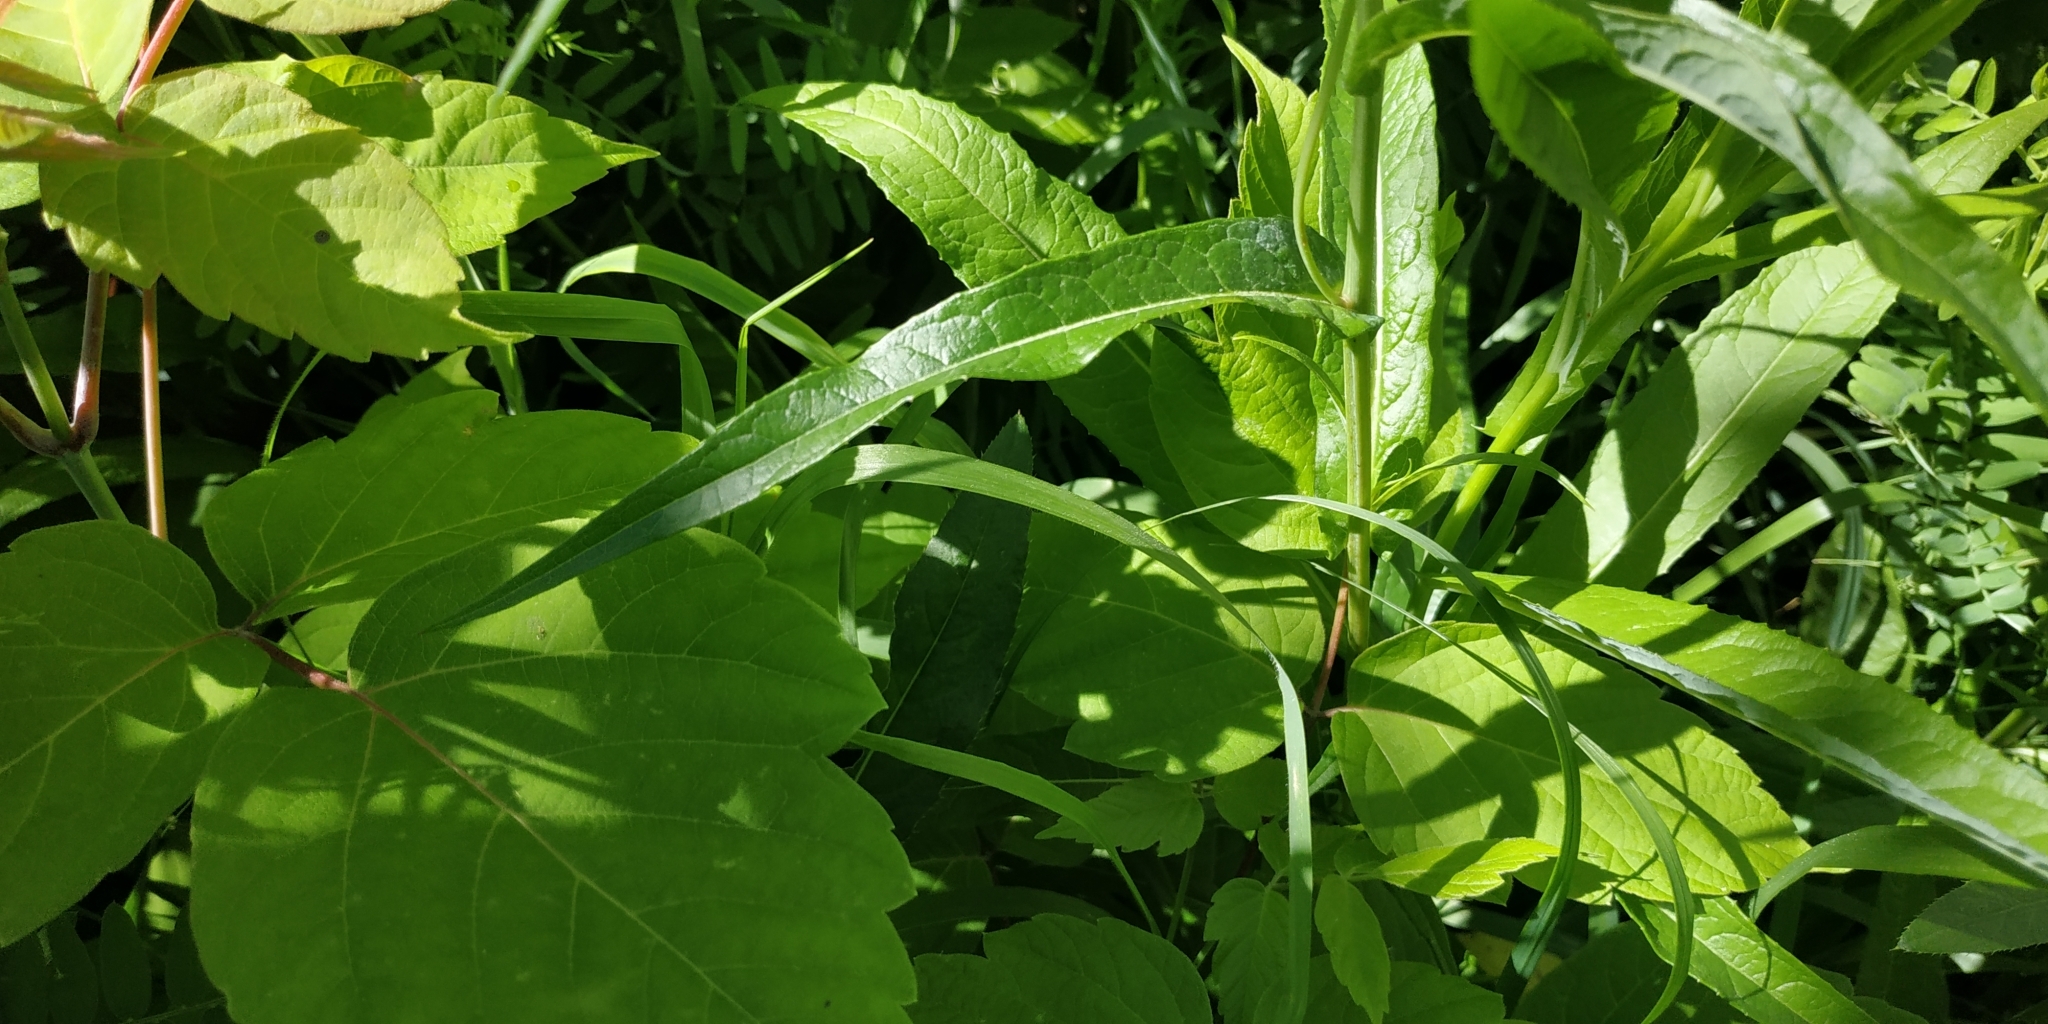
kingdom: Plantae
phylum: Tracheophyta
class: Magnoliopsida
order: Asterales
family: Asteraceae
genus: Lactuca
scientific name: Lactuca sibirica
